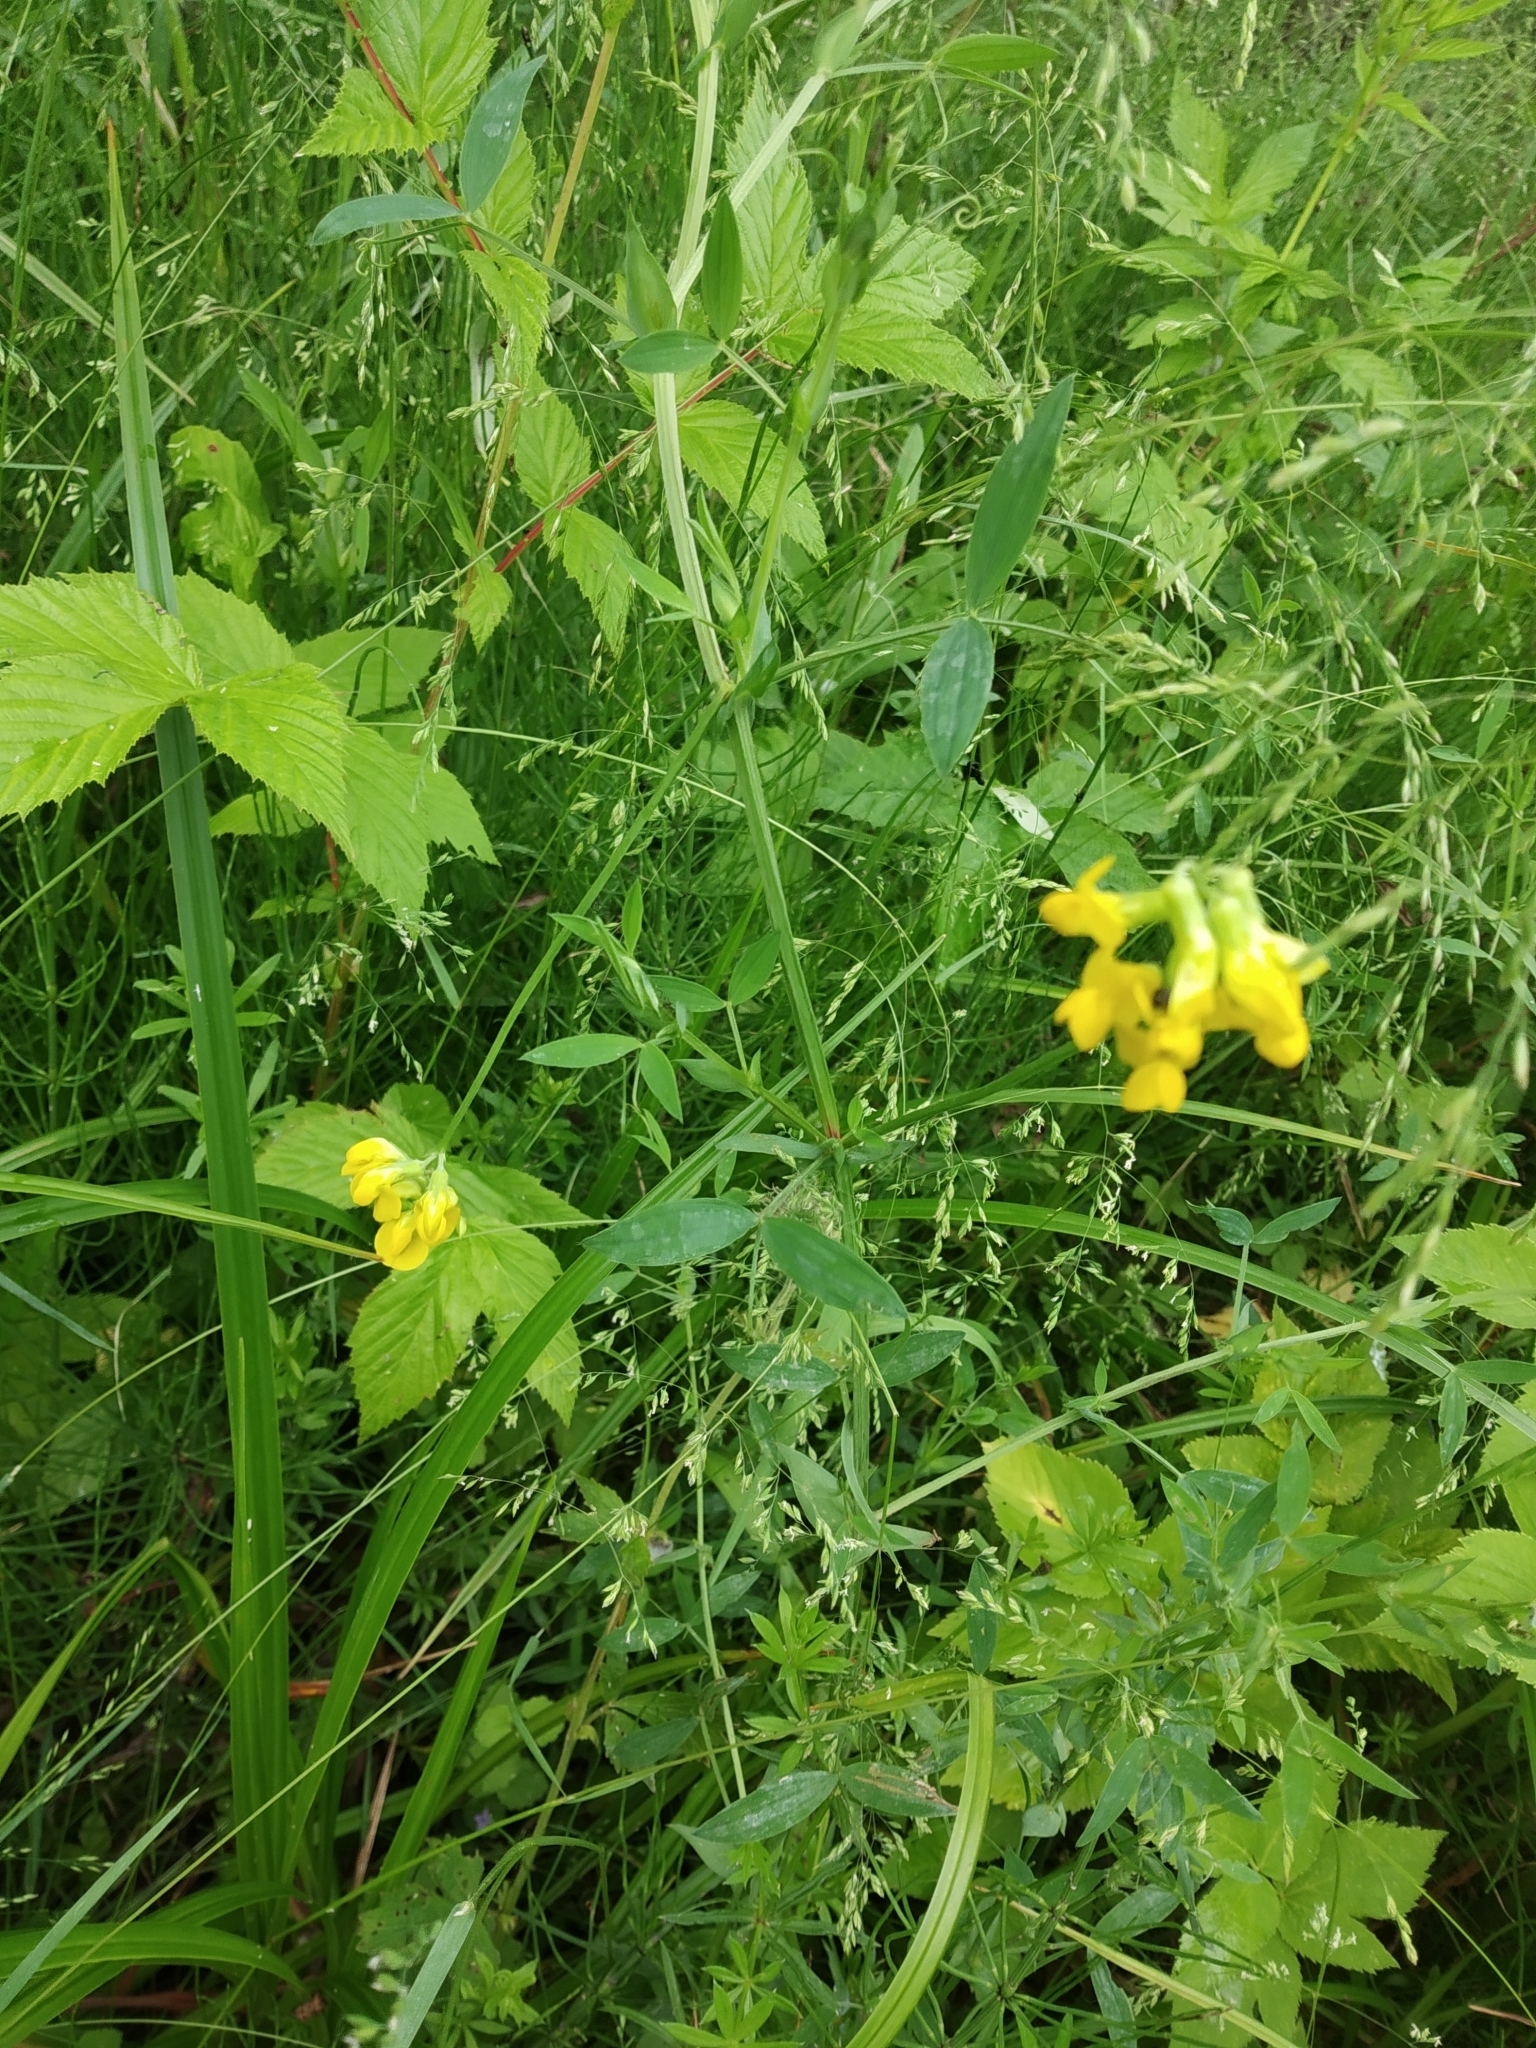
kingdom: Plantae
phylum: Tracheophyta
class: Magnoliopsida
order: Fabales
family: Fabaceae
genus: Lathyrus
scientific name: Lathyrus pratensis
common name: Meadow vetchling
